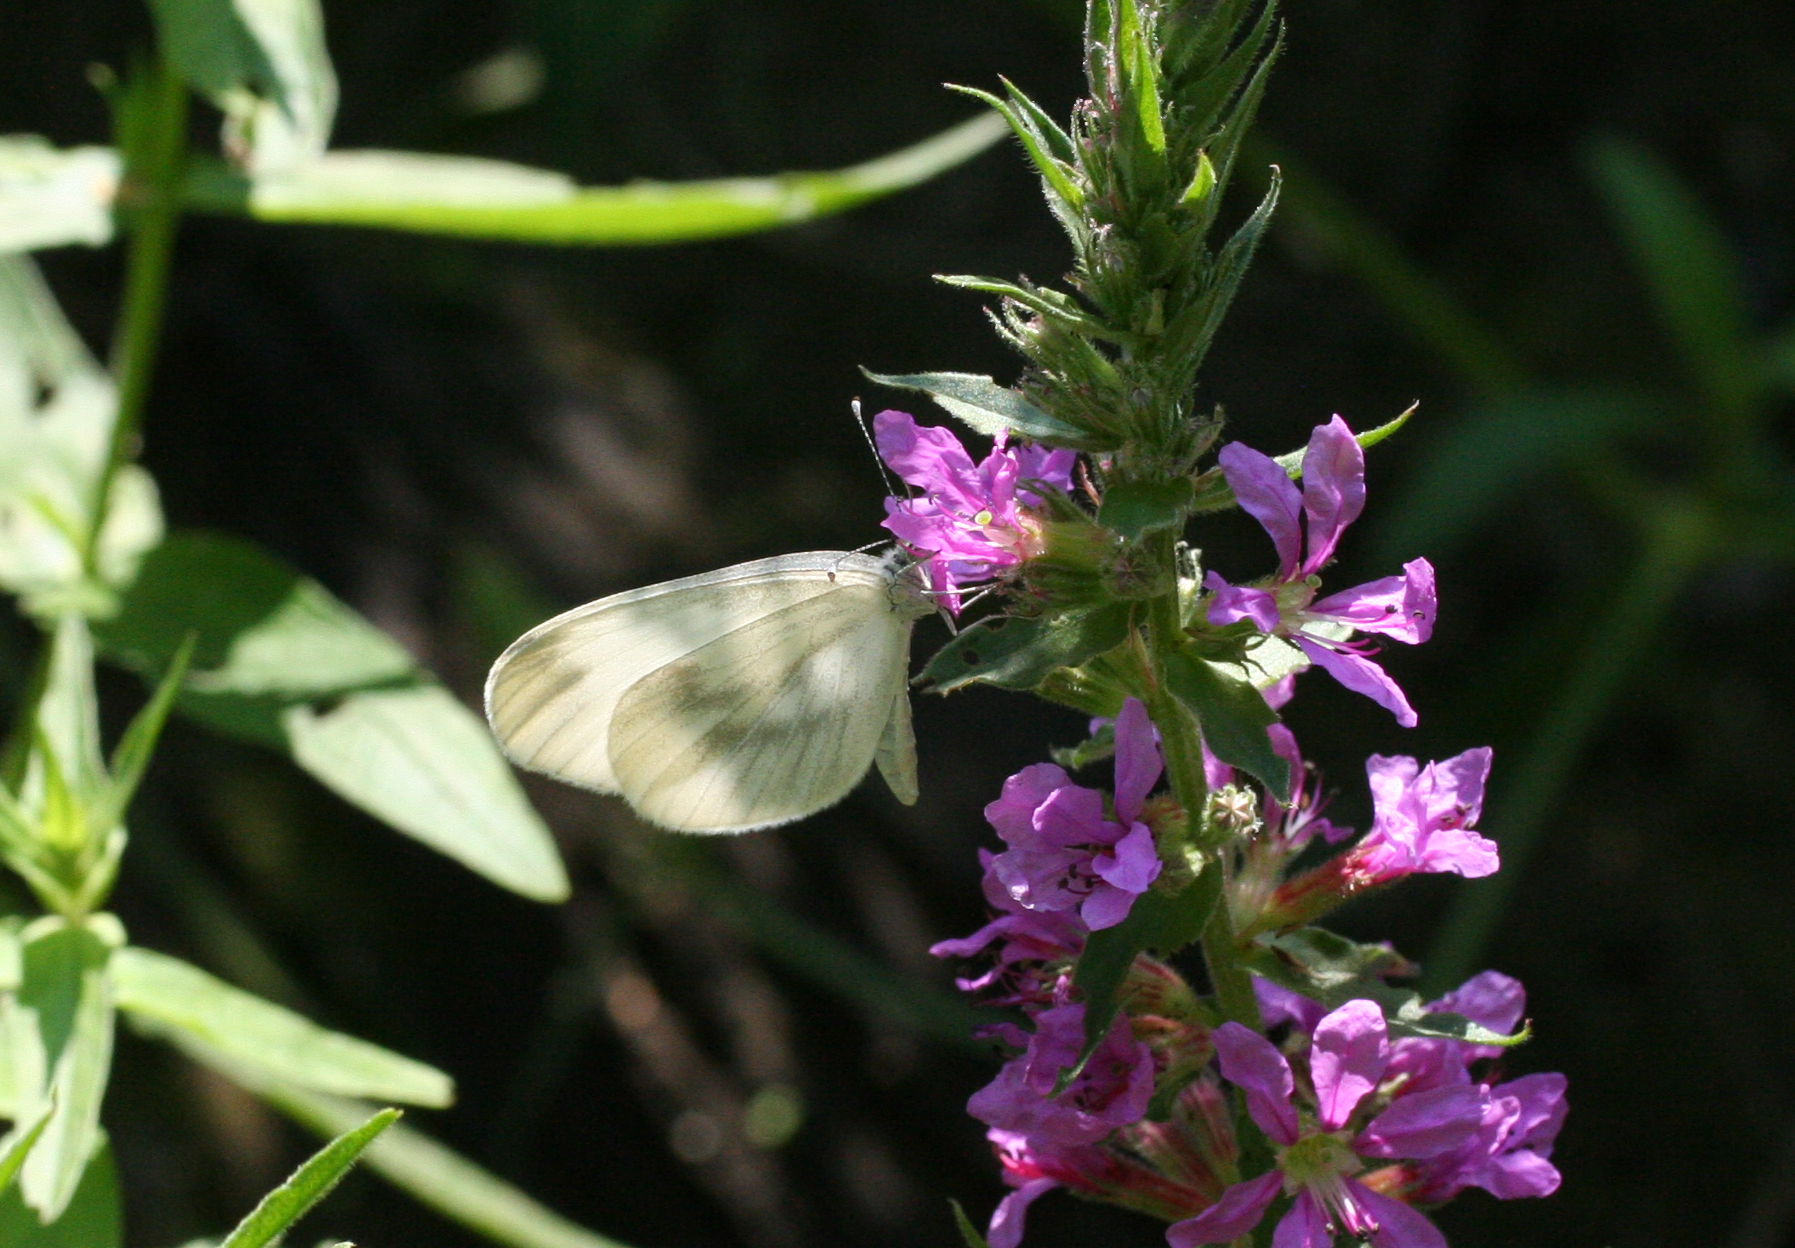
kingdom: Plantae
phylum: Tracheophyta
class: Magnoliopsida
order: Myrtales
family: Lythraceae
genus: Lythrum
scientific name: Lythrum salicaria
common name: Purple loosestrife
